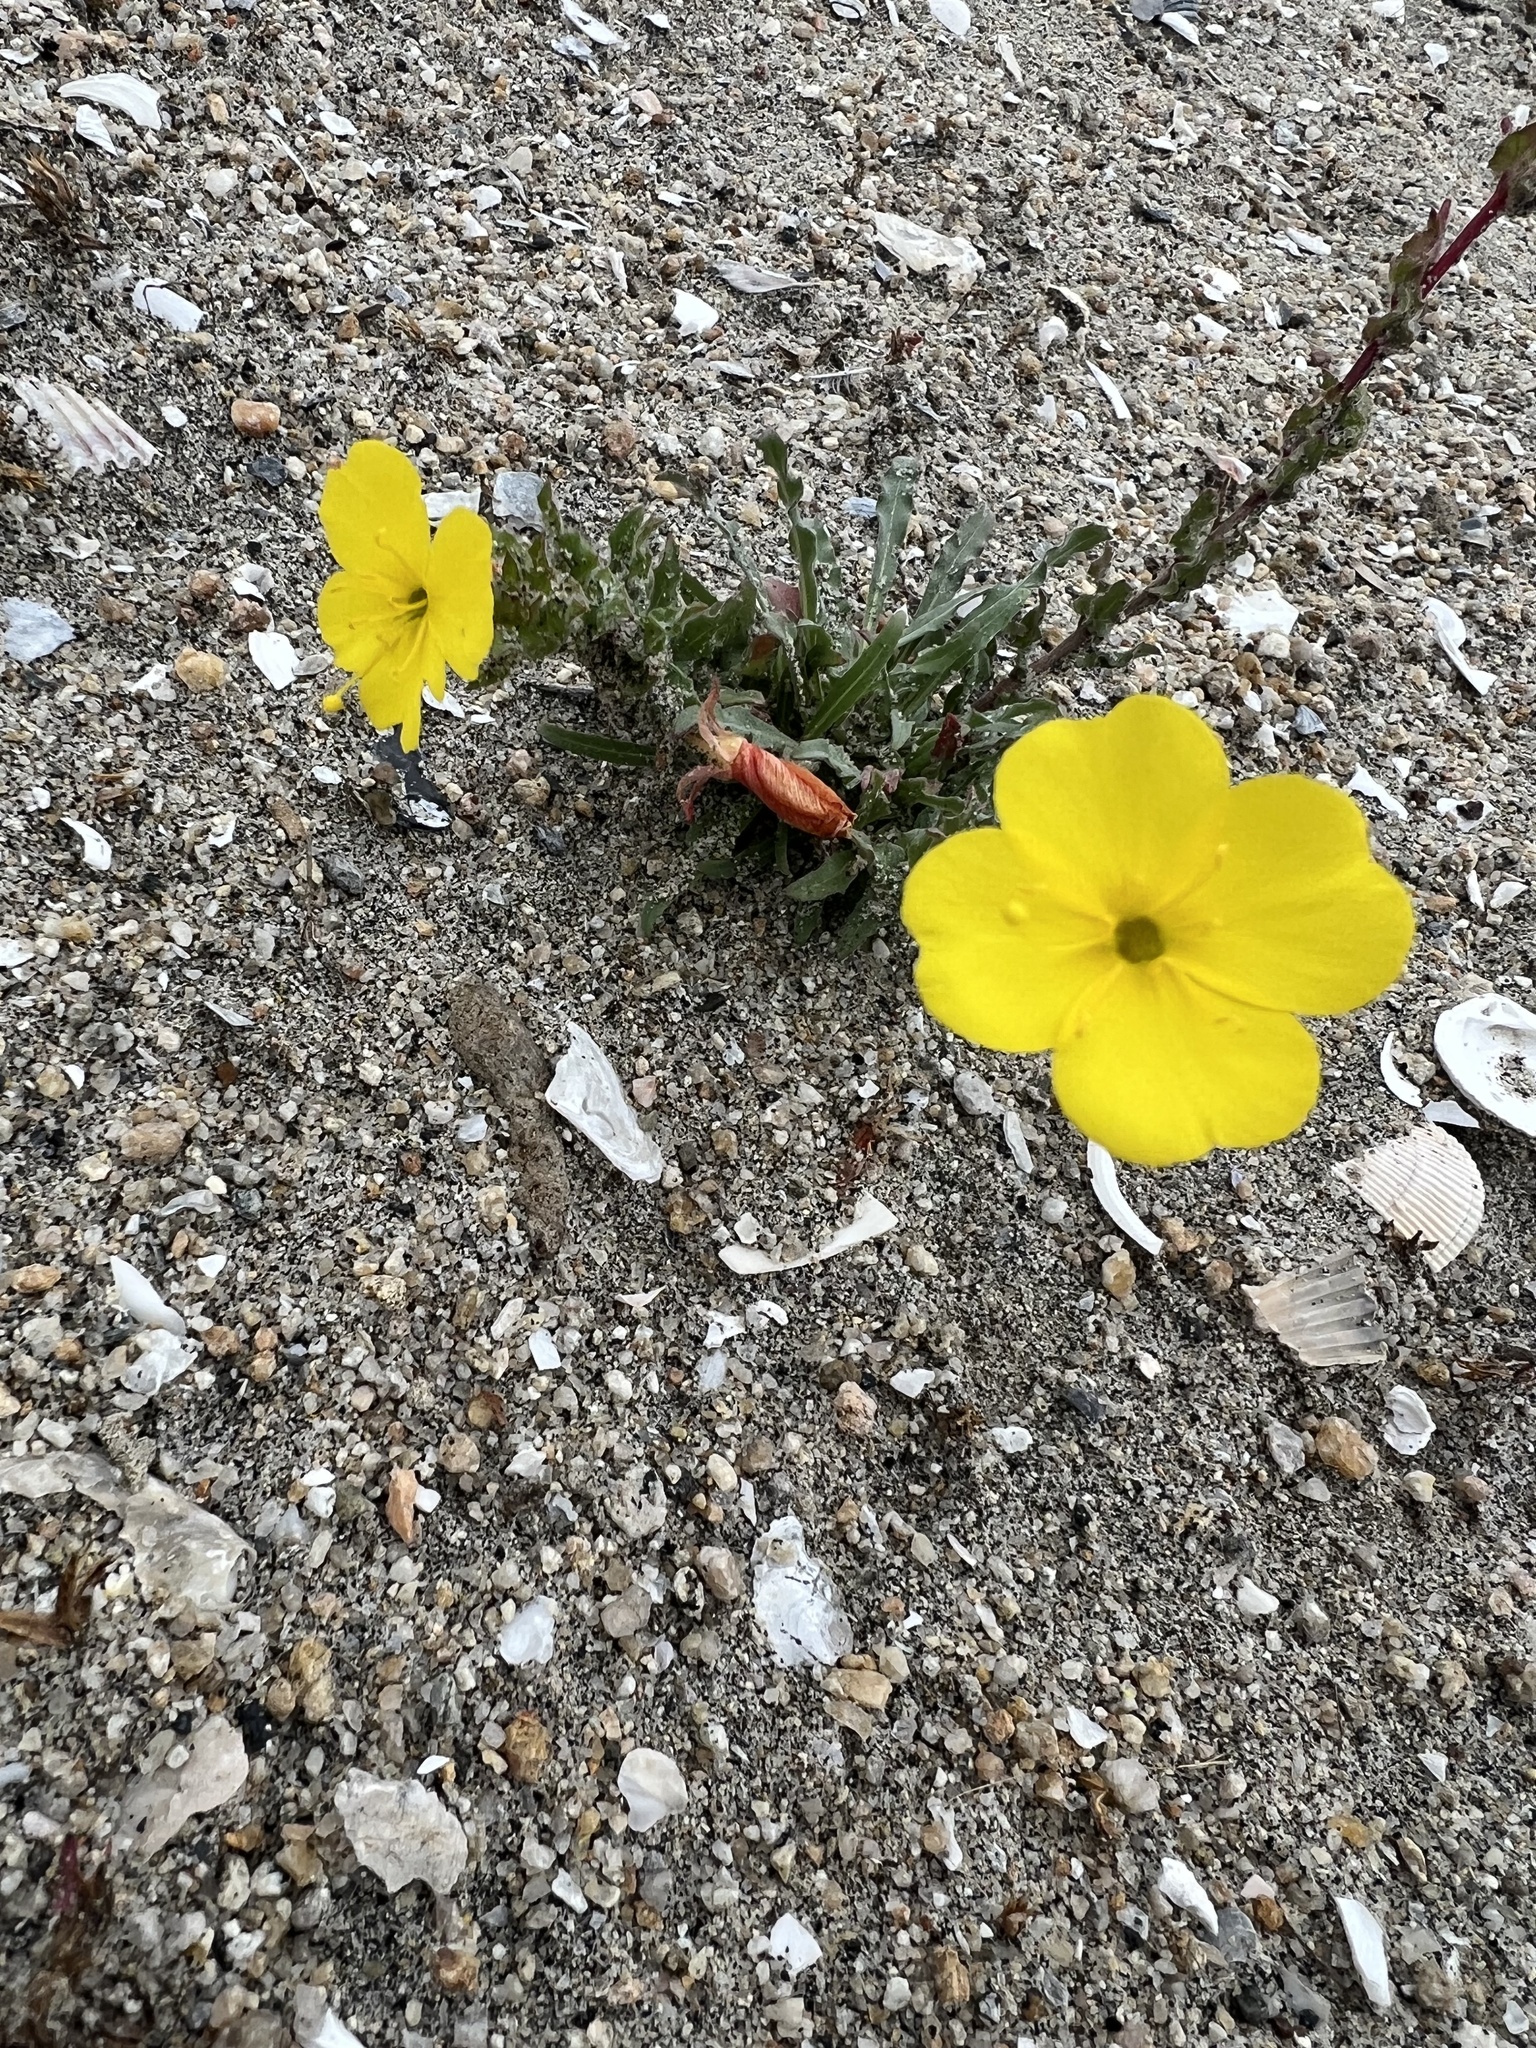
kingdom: Plantae
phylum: Tracheophyta
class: Magnoliopsida
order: Myrtales
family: Onagraceae
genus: Camissoniopsis
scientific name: Camissoniopsis cheiranthifolia
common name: Beach suncup
